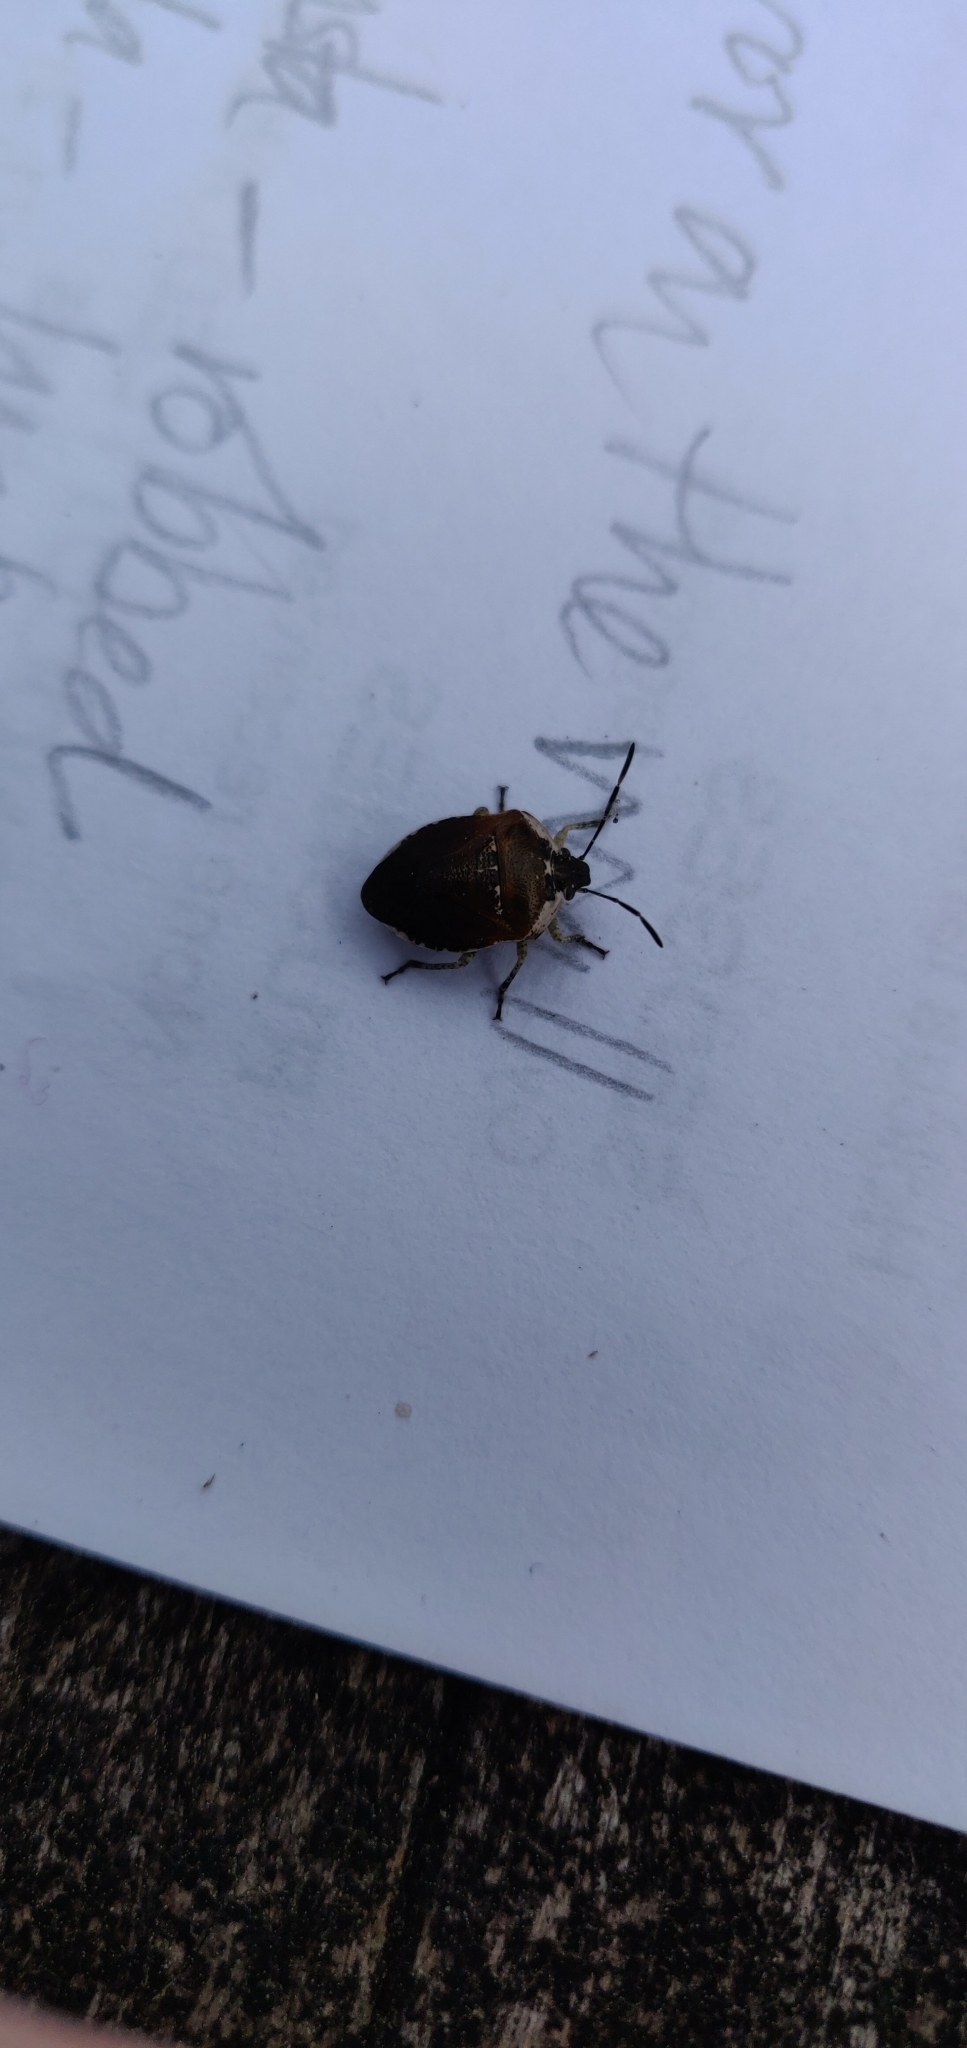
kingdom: Animalia
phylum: Arthropoda
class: Insecta
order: Hemiptera
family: Pentatomidae
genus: Monteithiella
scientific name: Monteithiella
